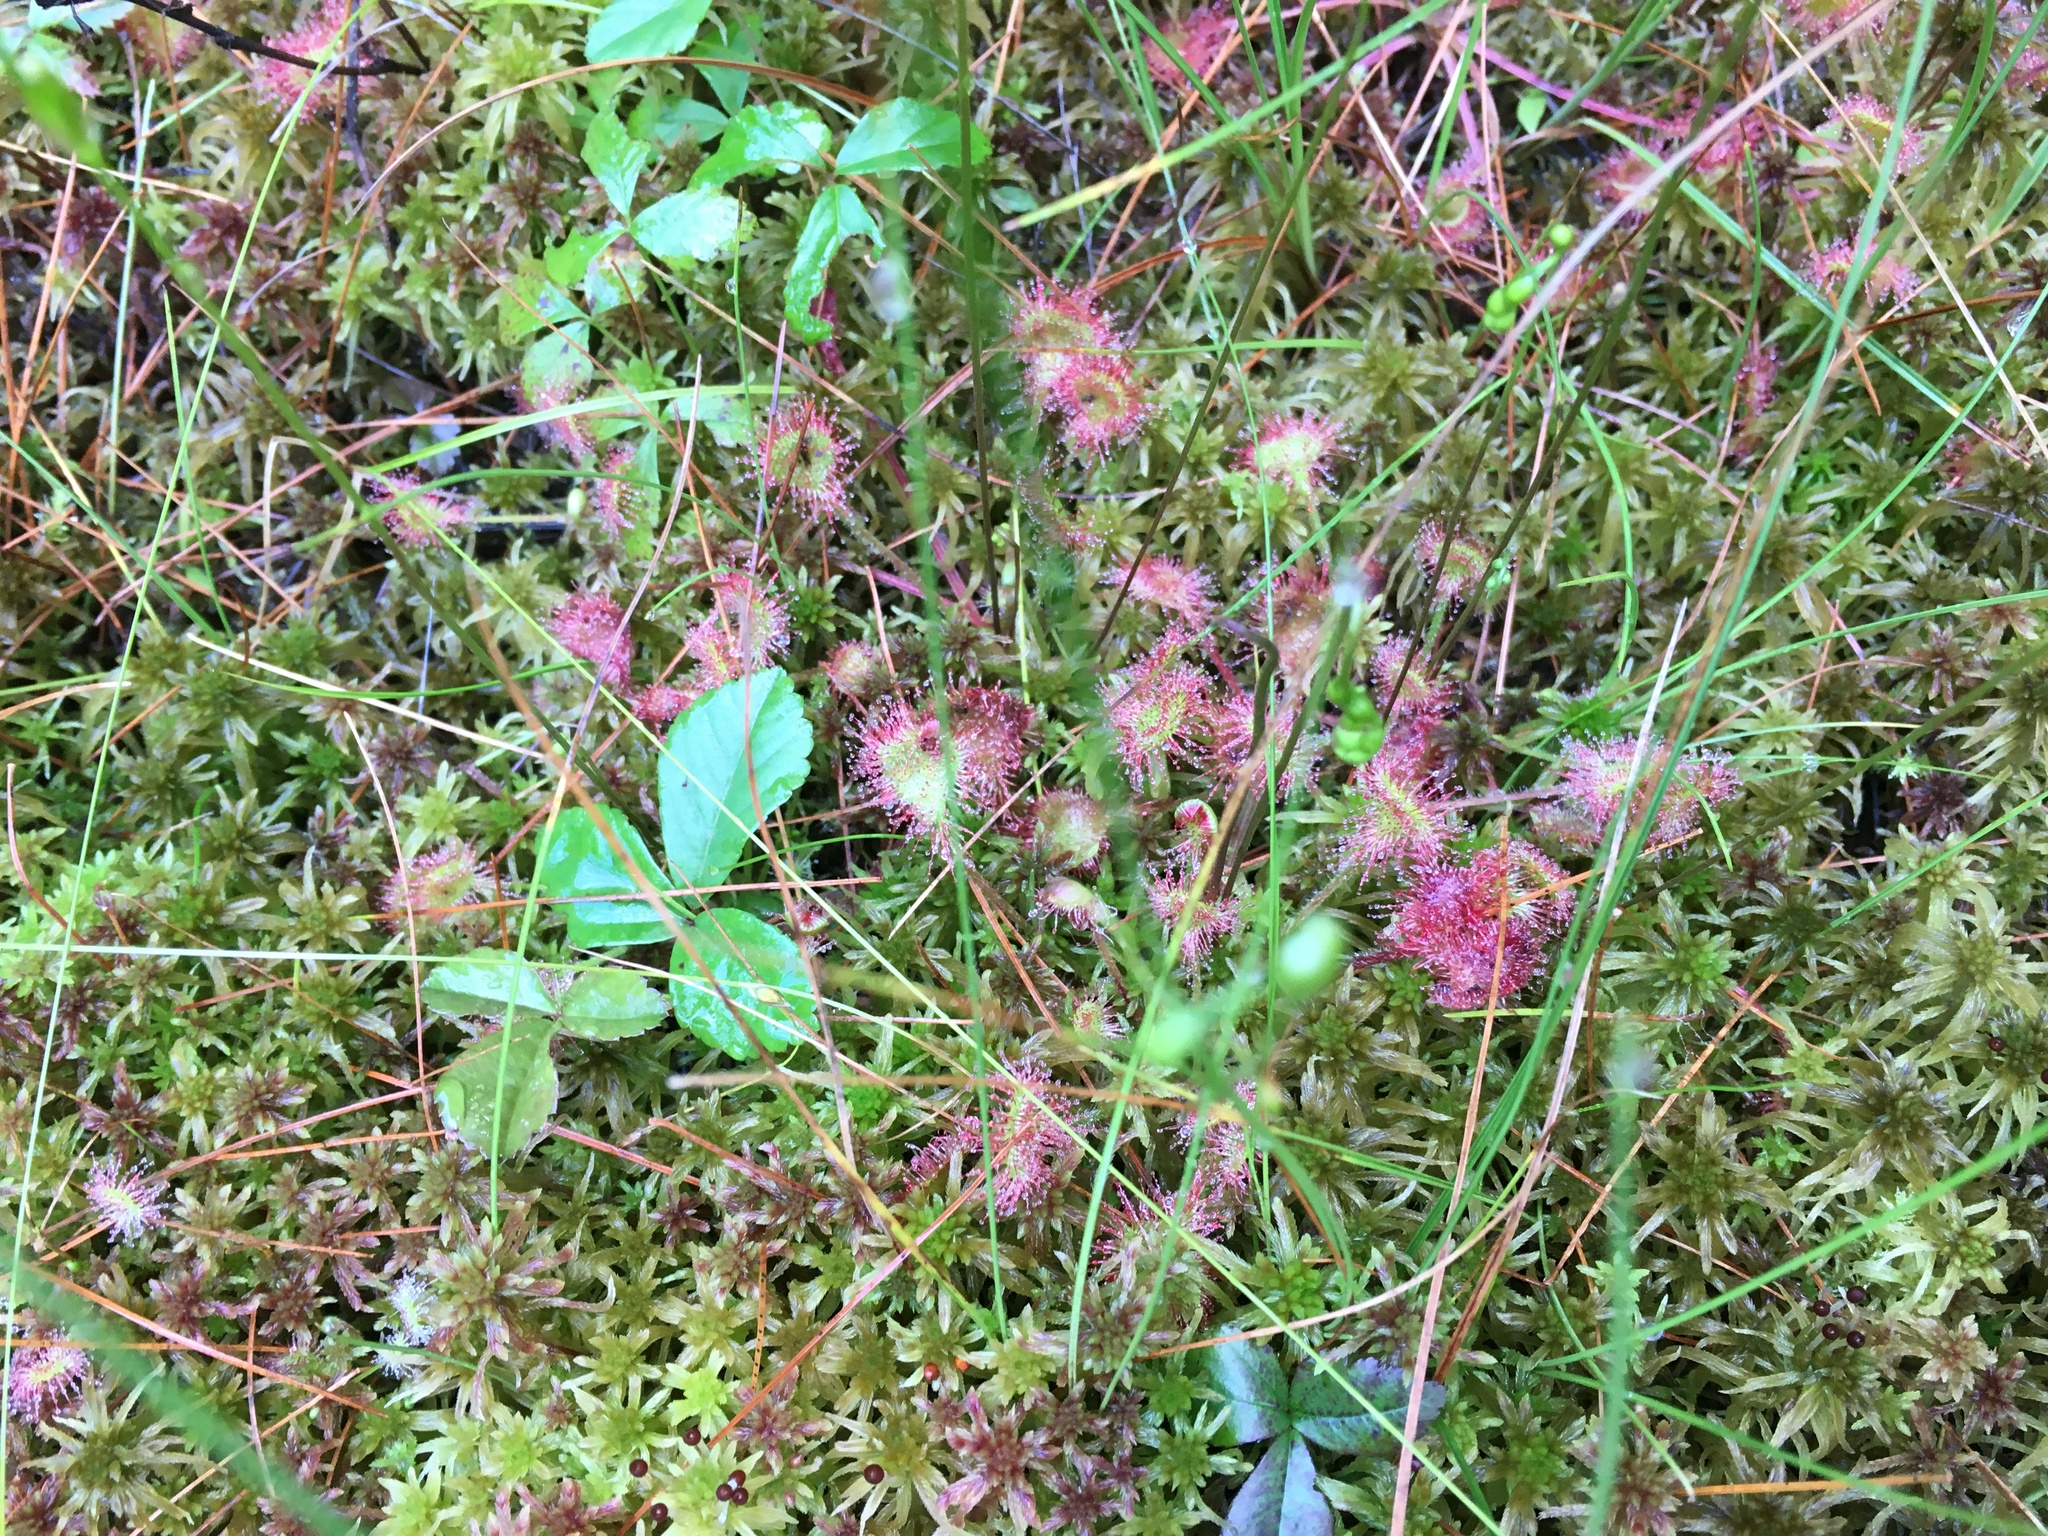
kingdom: Plantae
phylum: Tracheophyta
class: Magnoliopsida
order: Caryophyllales
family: Droseraceae
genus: Drosera
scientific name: Drosera rotundifolia
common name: Round-leaved sundew
